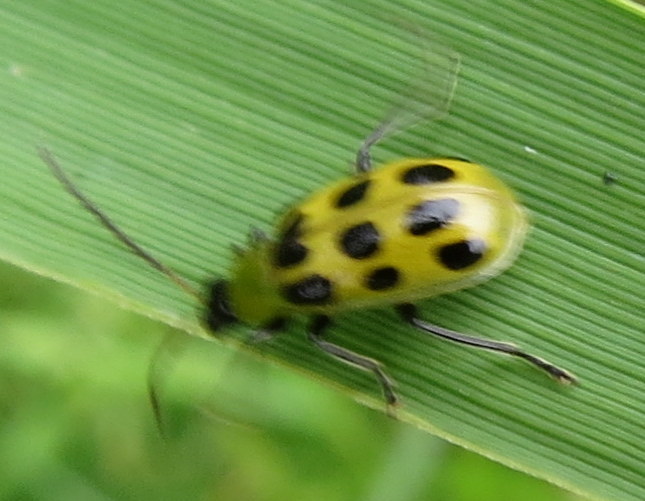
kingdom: Animalia
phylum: Arthropoda
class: Insecta
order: Coleoptera
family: Chrysomelidae
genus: Diabrotica
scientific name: Diabrotica undecimpunctata
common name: Spotted cucumber beetle
